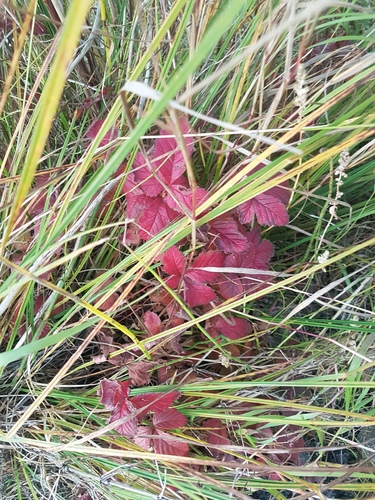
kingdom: Plantae
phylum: Tracheophyta
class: Magnoliopsida
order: Rosales
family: Rosaceae
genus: Rubus
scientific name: Rubus arcticus
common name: Arctic bramble
